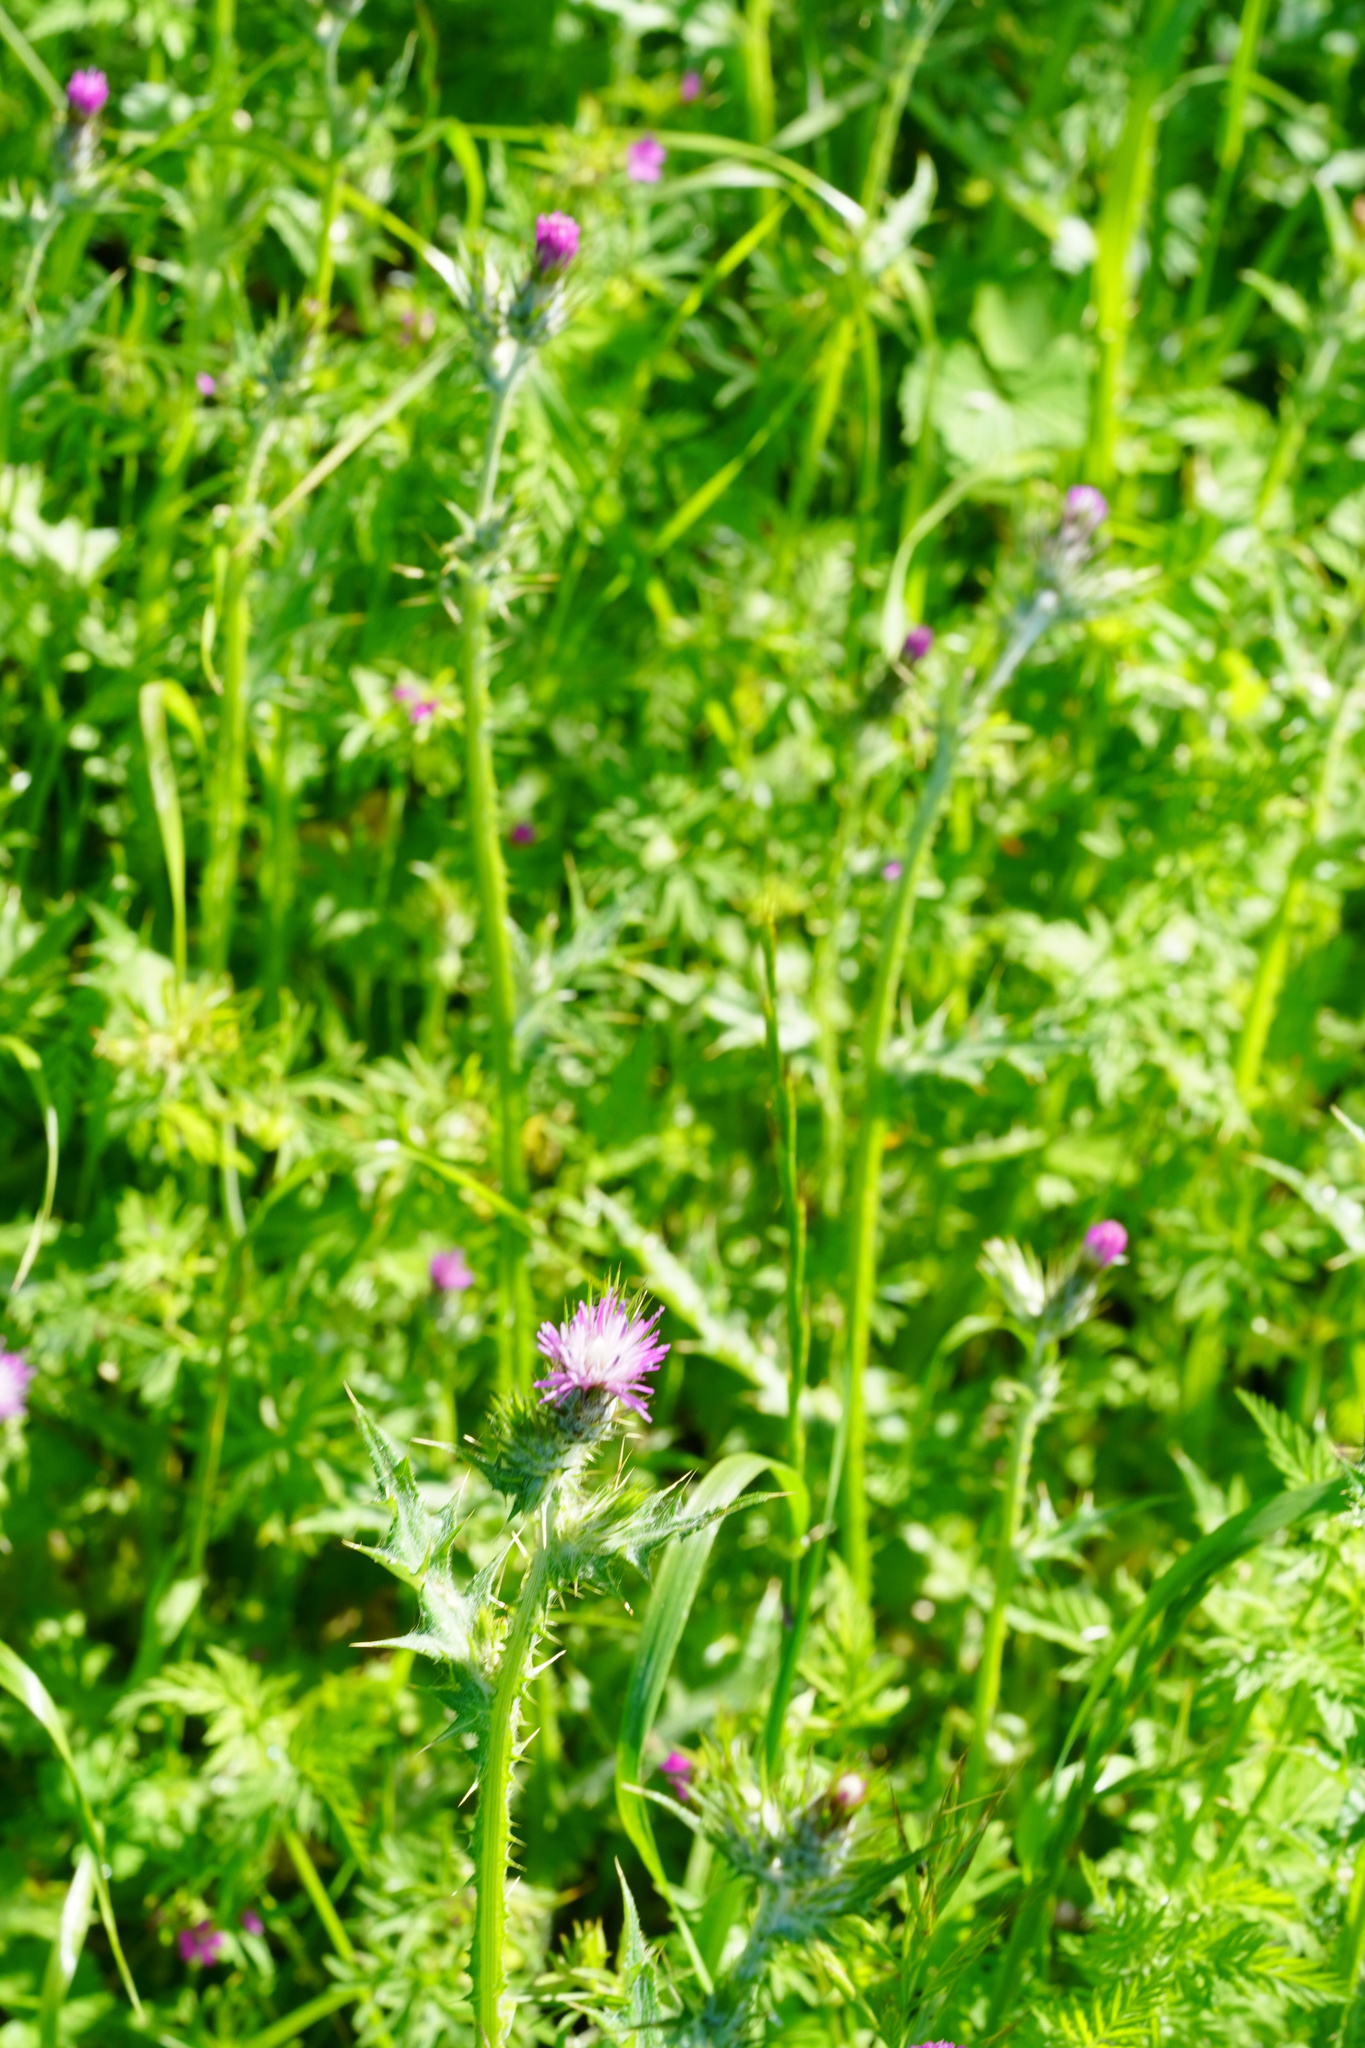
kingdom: Plantae
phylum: Tracheophyta
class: Magnoliopsida
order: Asterales
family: Asteraceae
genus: Carduus
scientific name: Carduus pycnocephalus
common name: Plymouth thistle
